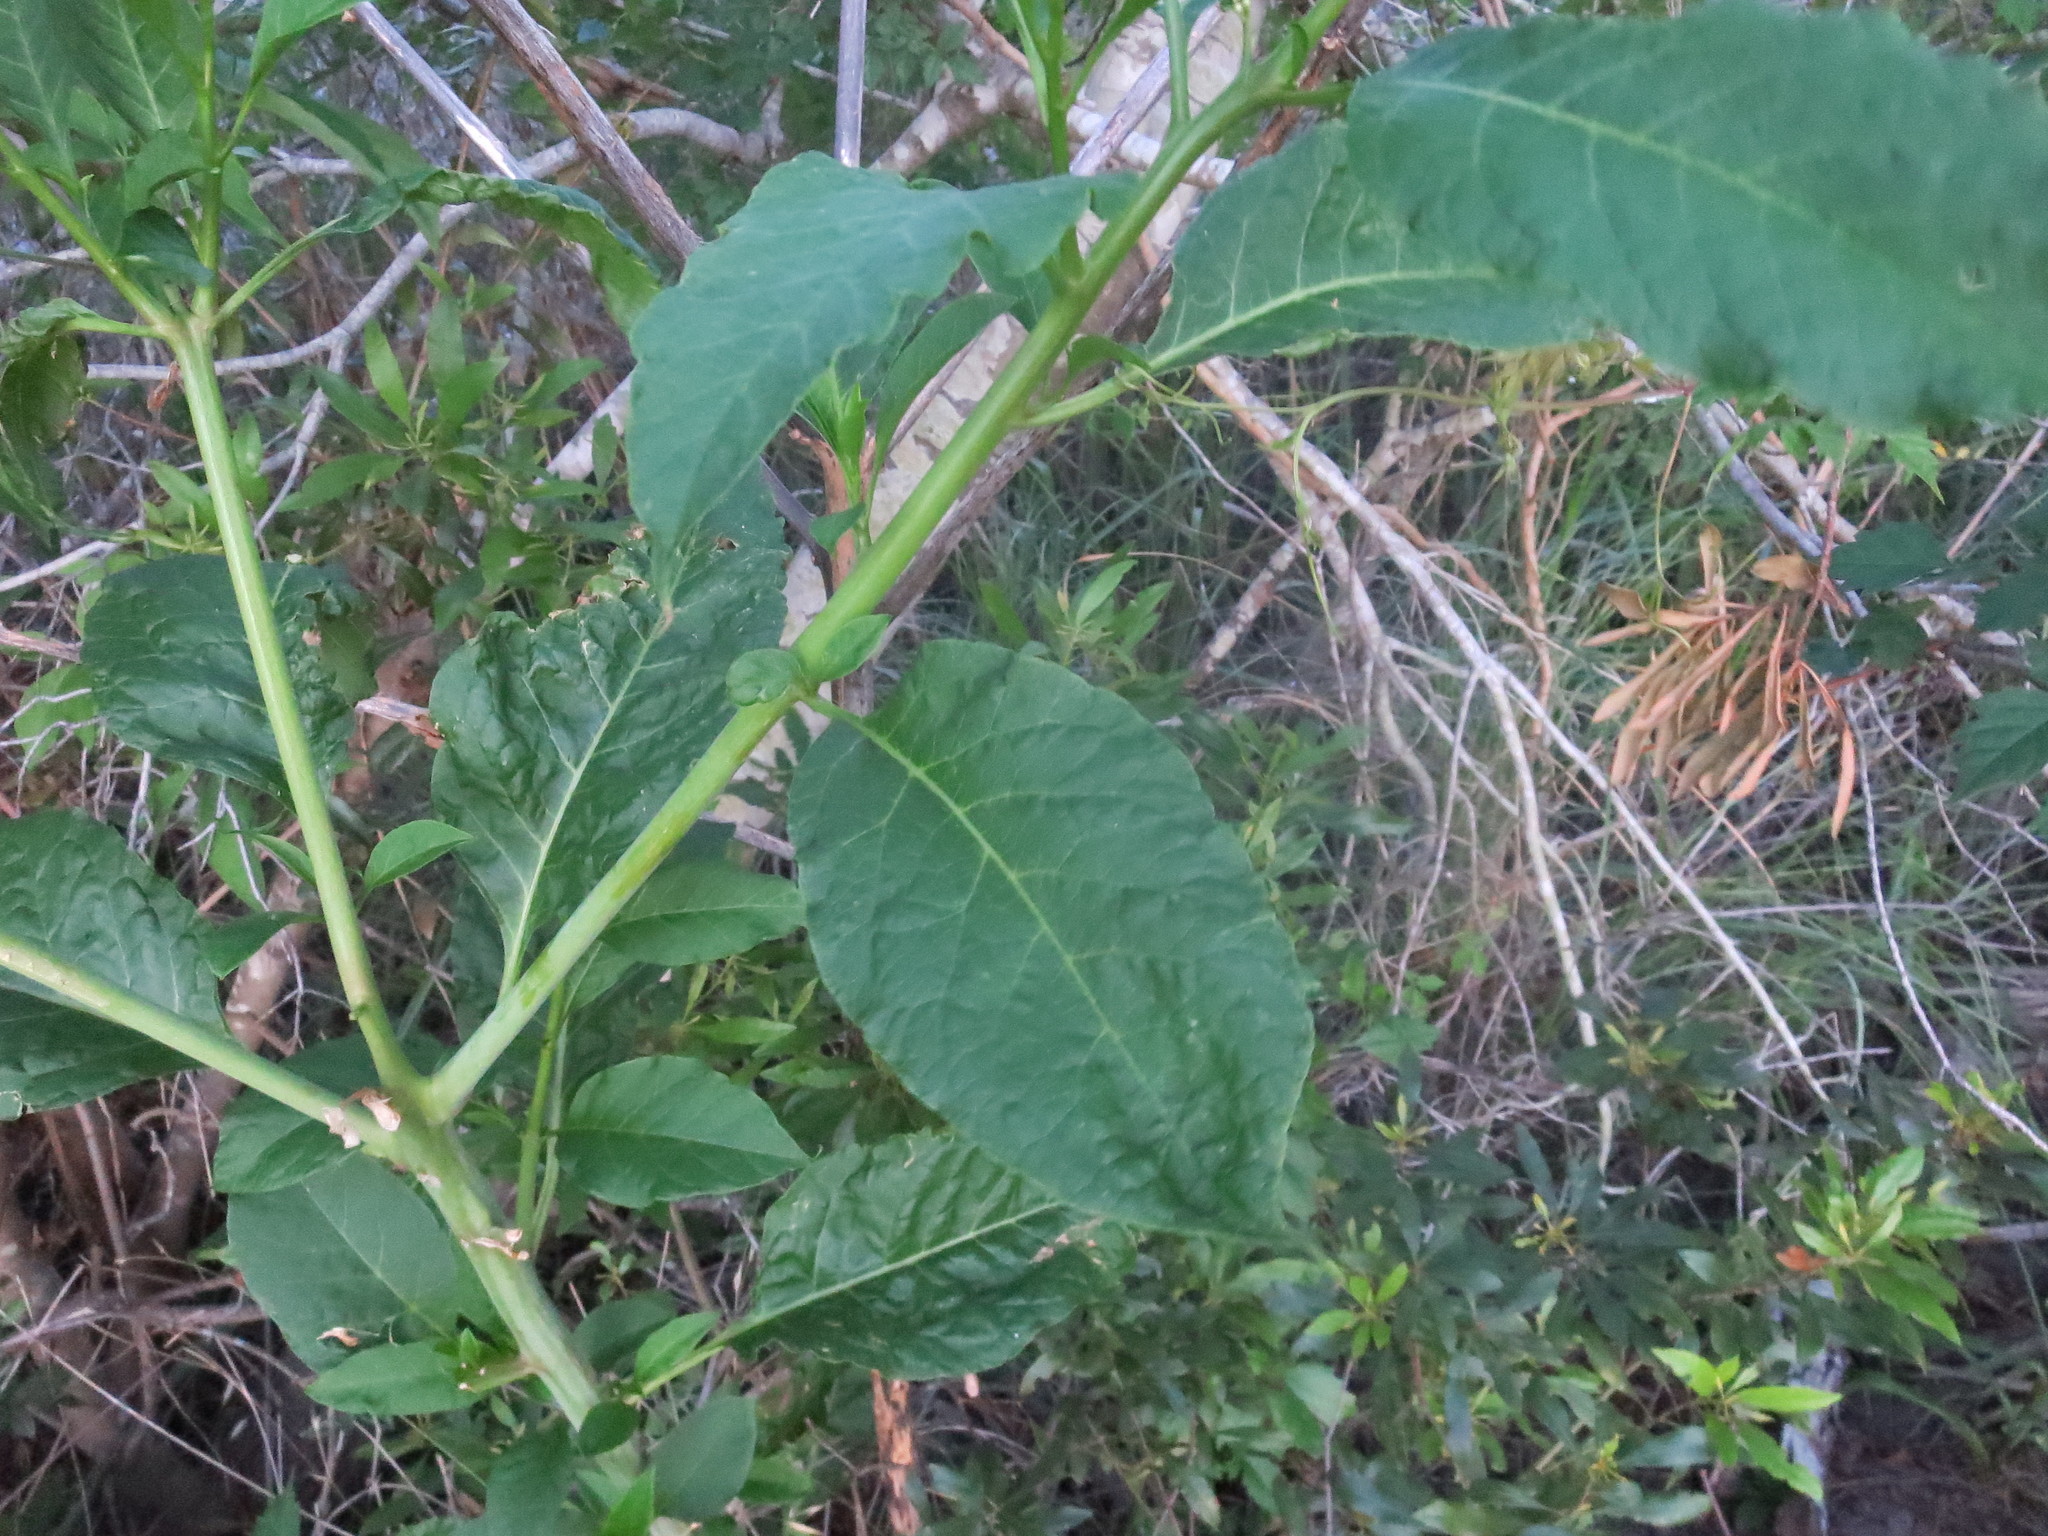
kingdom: Plantae
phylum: Tracheophyta
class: Magnoliopsida
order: Caryophyllales
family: Phytolaccaceae
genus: Phytolacca
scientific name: Phytolacca americana
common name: American pokeweed
